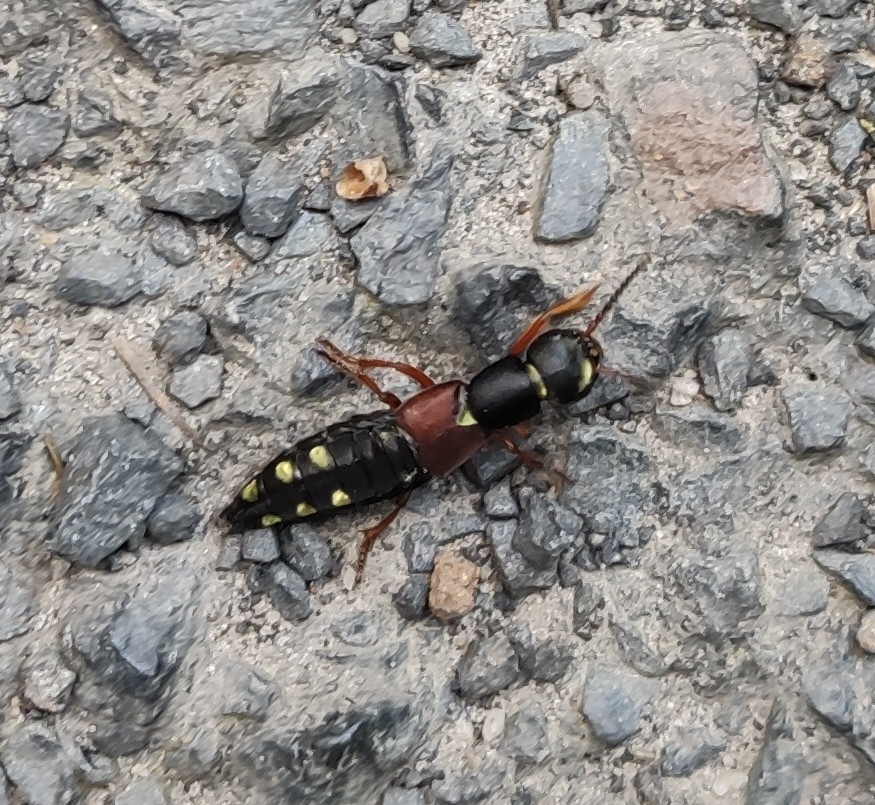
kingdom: Animalia
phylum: Arthropoda
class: Insecta
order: Coleoptera
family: Staphylinidae
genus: Staphylinus
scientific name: Staphylinus erythropterus
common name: Staph beetle
